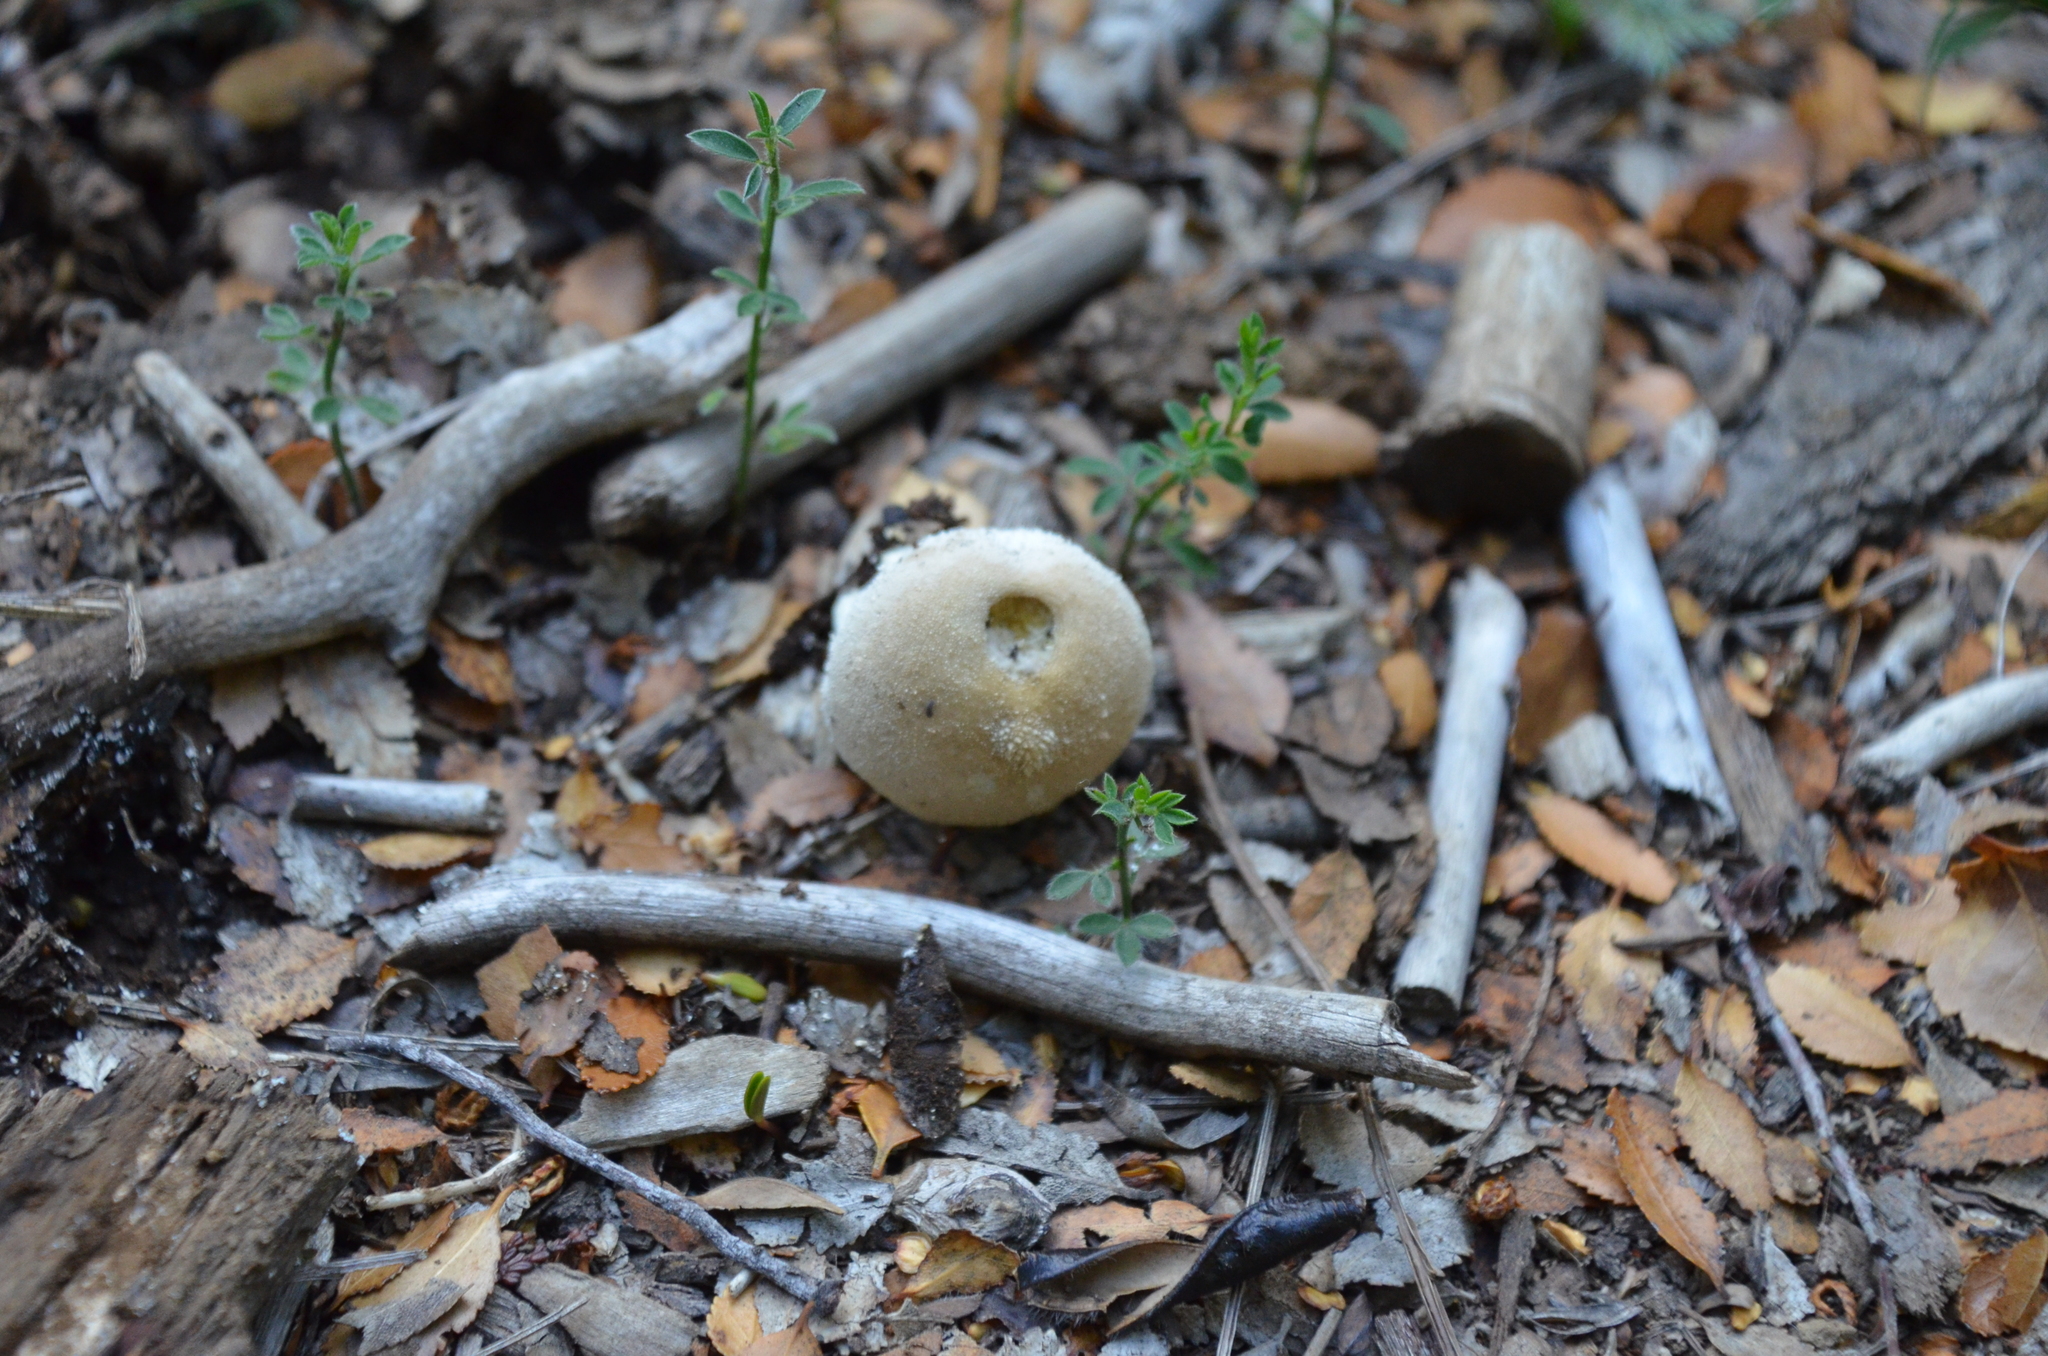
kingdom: Fungi
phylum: Basidiomycota
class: Agaricomycetes
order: Agaricales
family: Lycoperdaceae
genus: Lycoperdon
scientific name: Lycoperdon perlatum
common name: Common puffball
